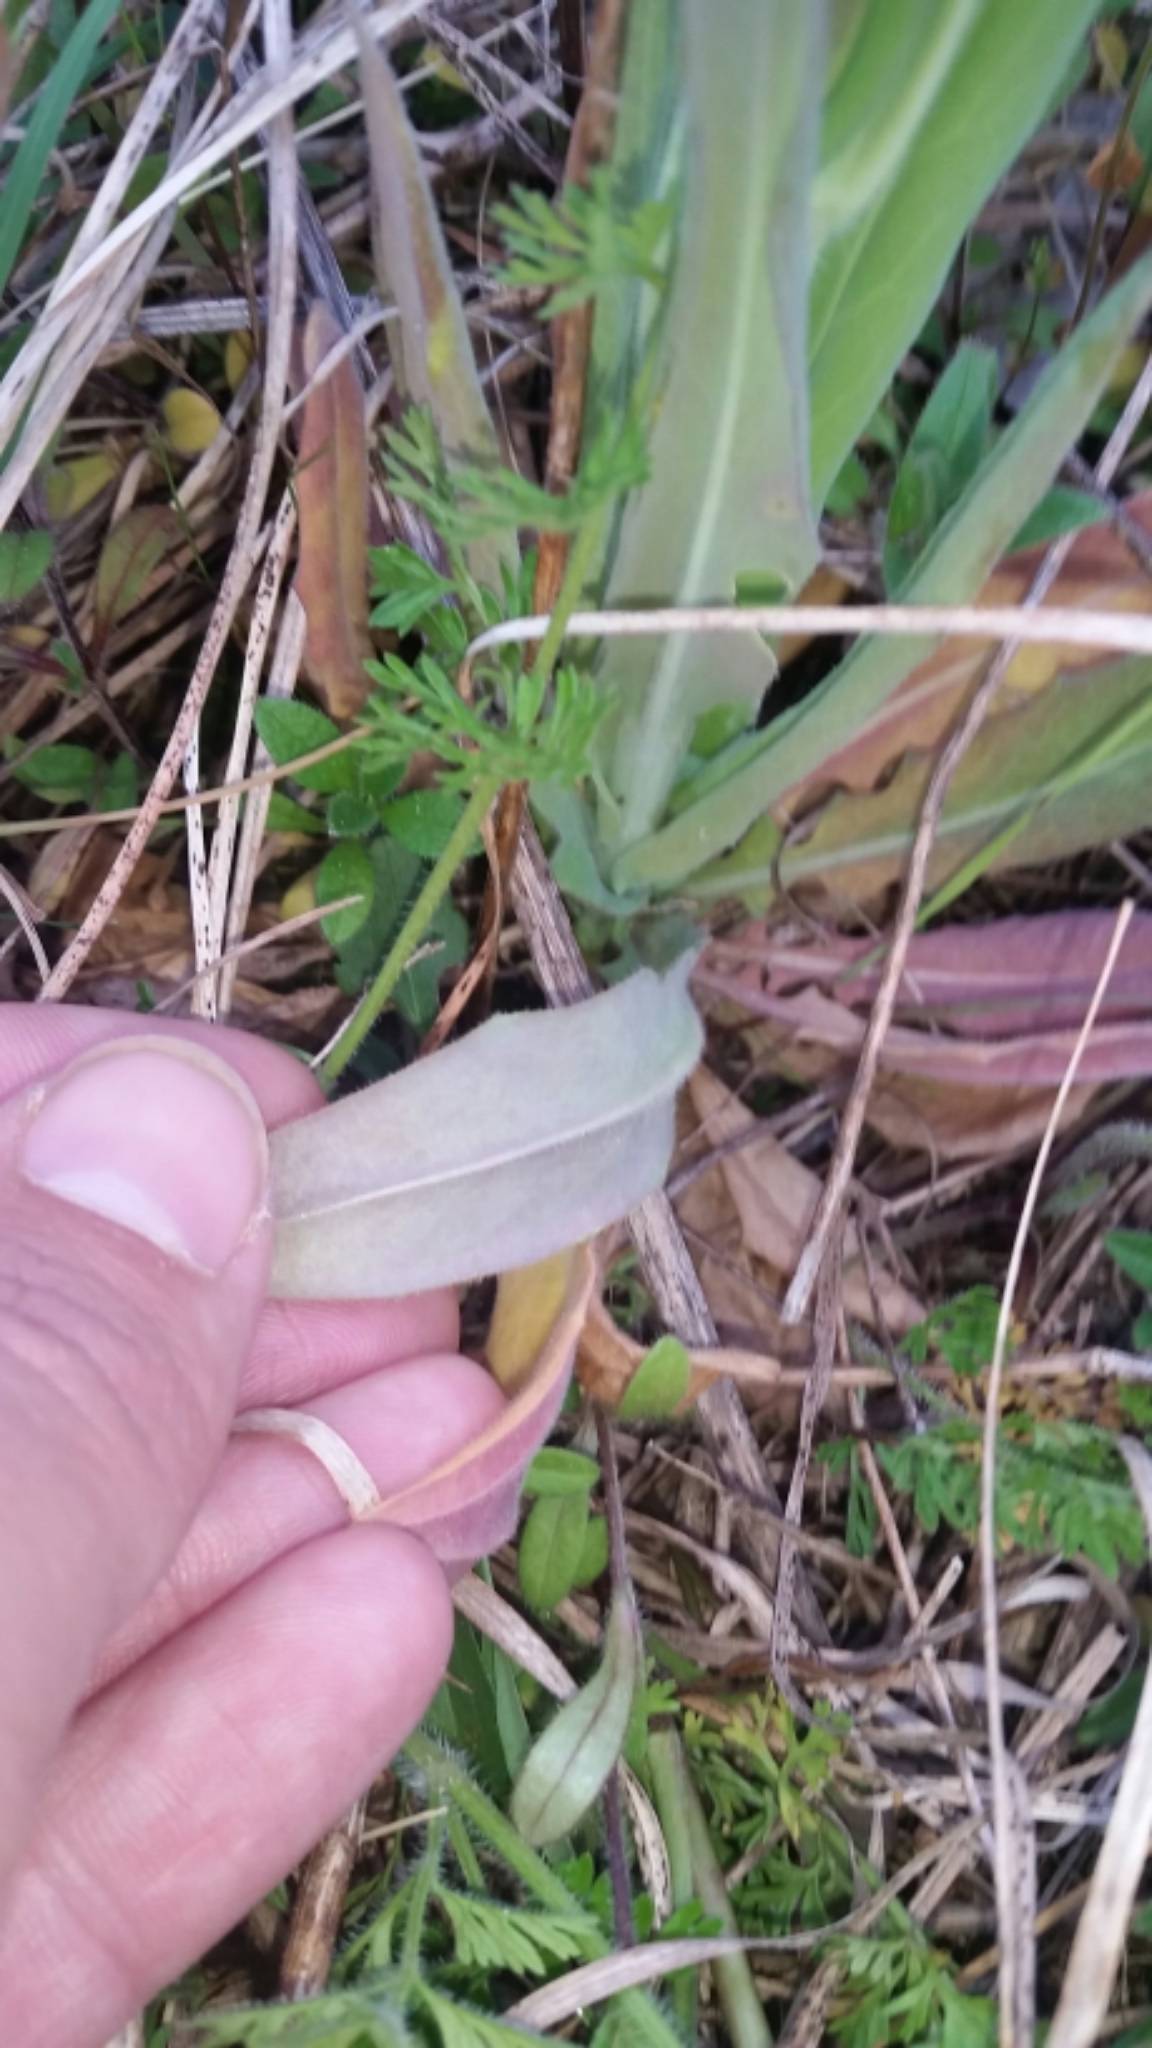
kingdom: Plantae
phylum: Tracheophyta
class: Magnoliopsida
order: Brassicales
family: Brassicaceae
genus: Turritis
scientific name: Turritis glabra
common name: Tower rockcress
